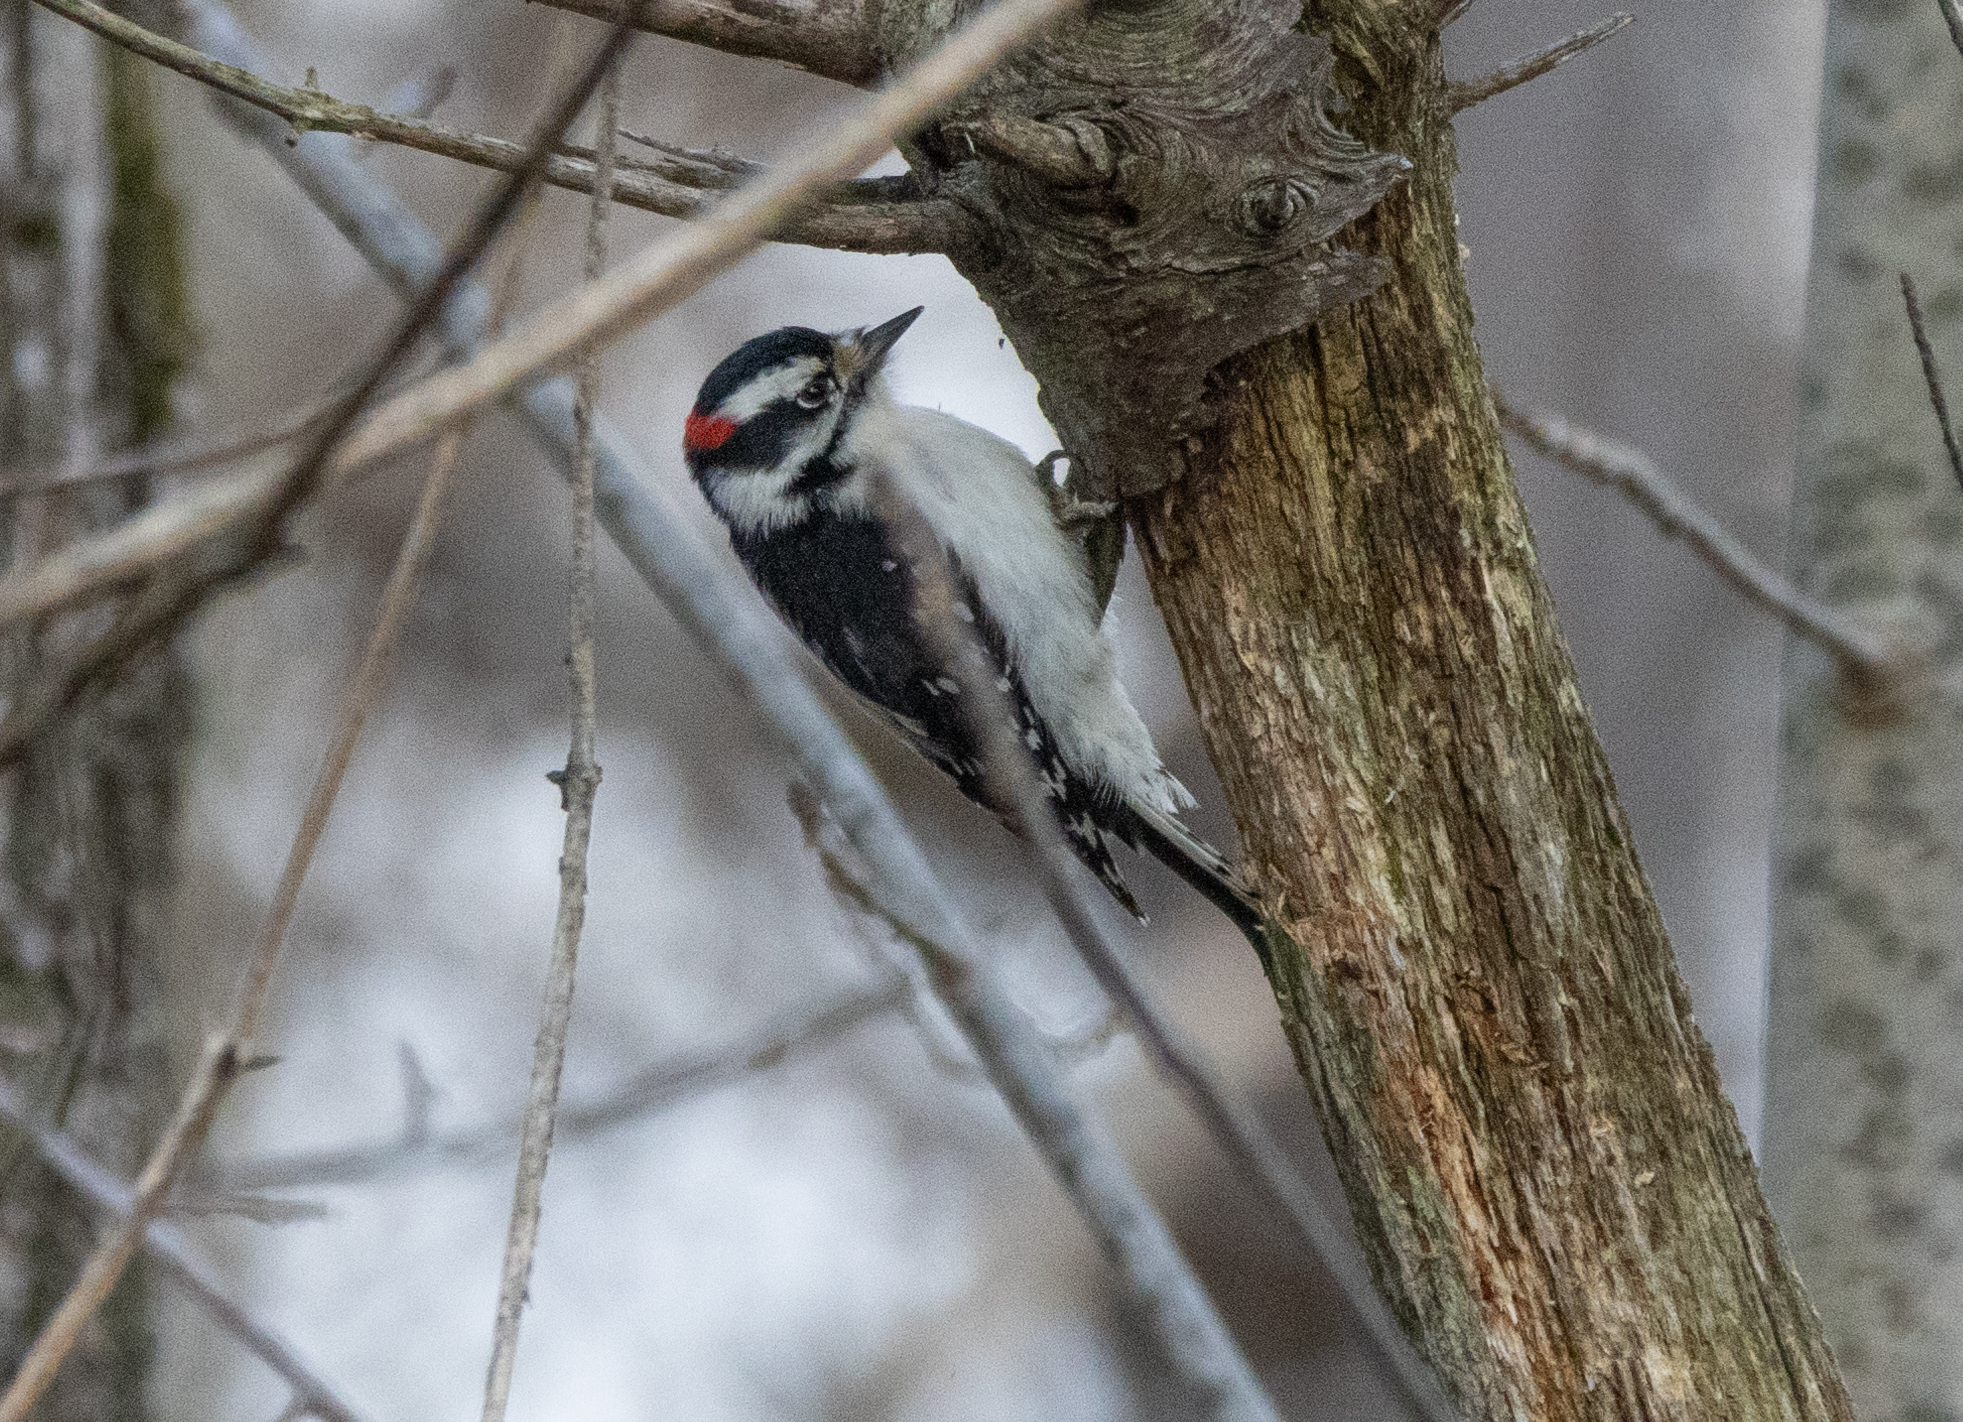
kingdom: Animalia
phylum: Chordata
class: Aves
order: Piciformes
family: Picidae
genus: Dryobates
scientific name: Dryobates pubescens
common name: Downy woodpecker
